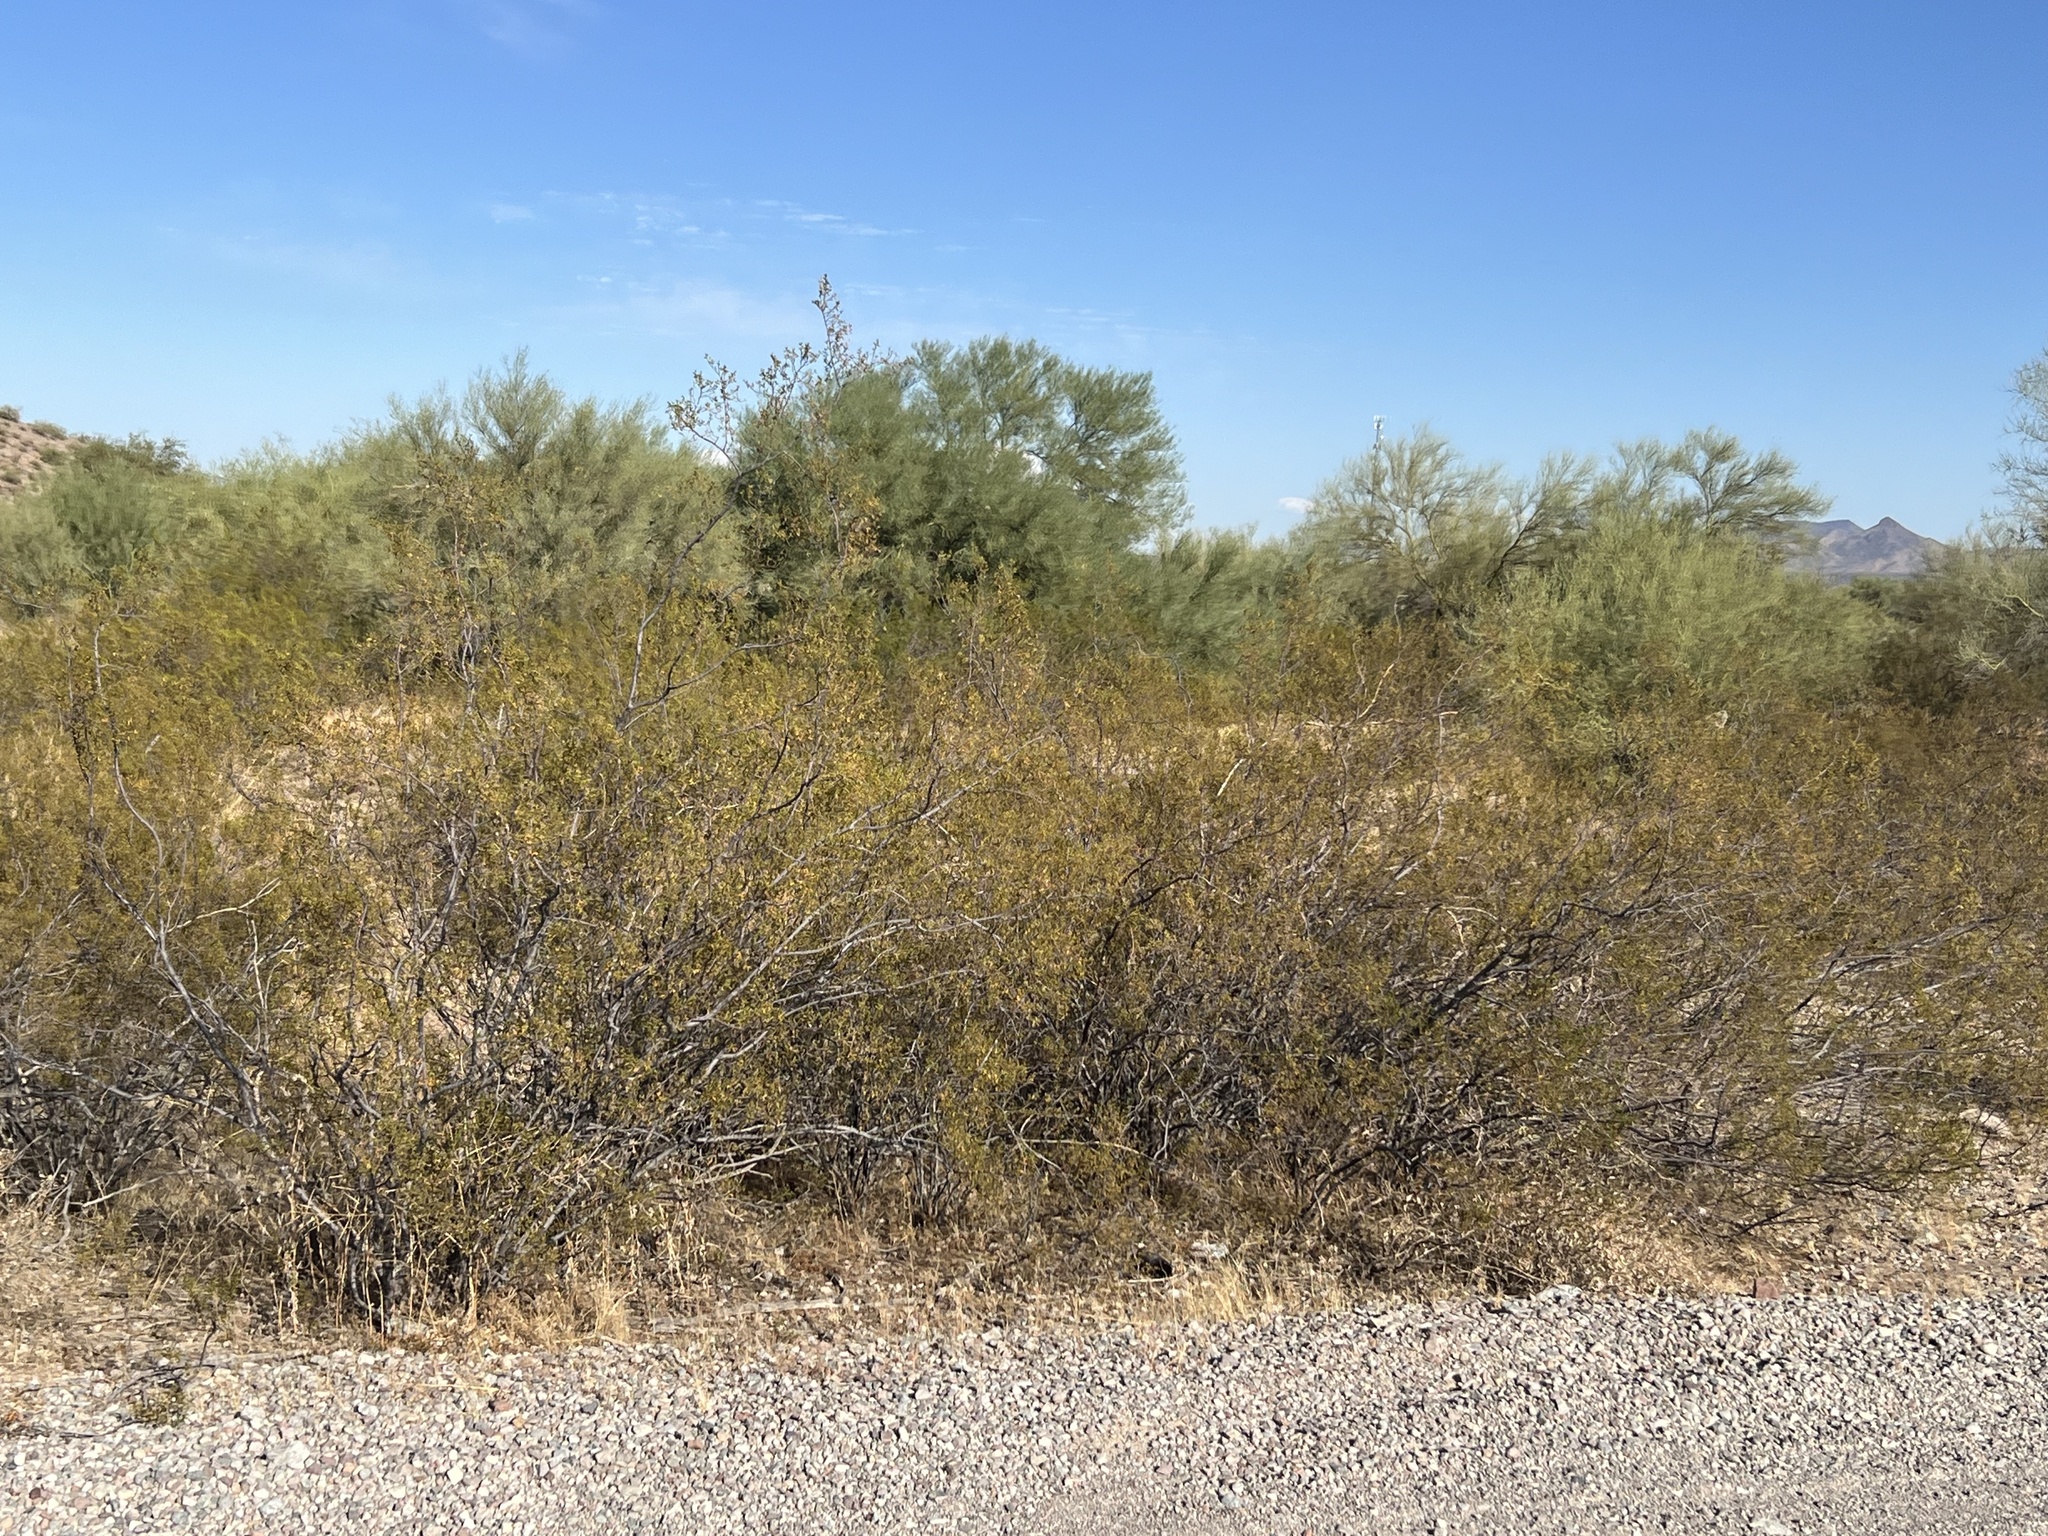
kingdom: Plantae
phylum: Tracheophyta
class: Magnoliopsida
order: Zygophyllales
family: Zygophyllaceae
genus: Larrea
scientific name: Larrea tridentata
